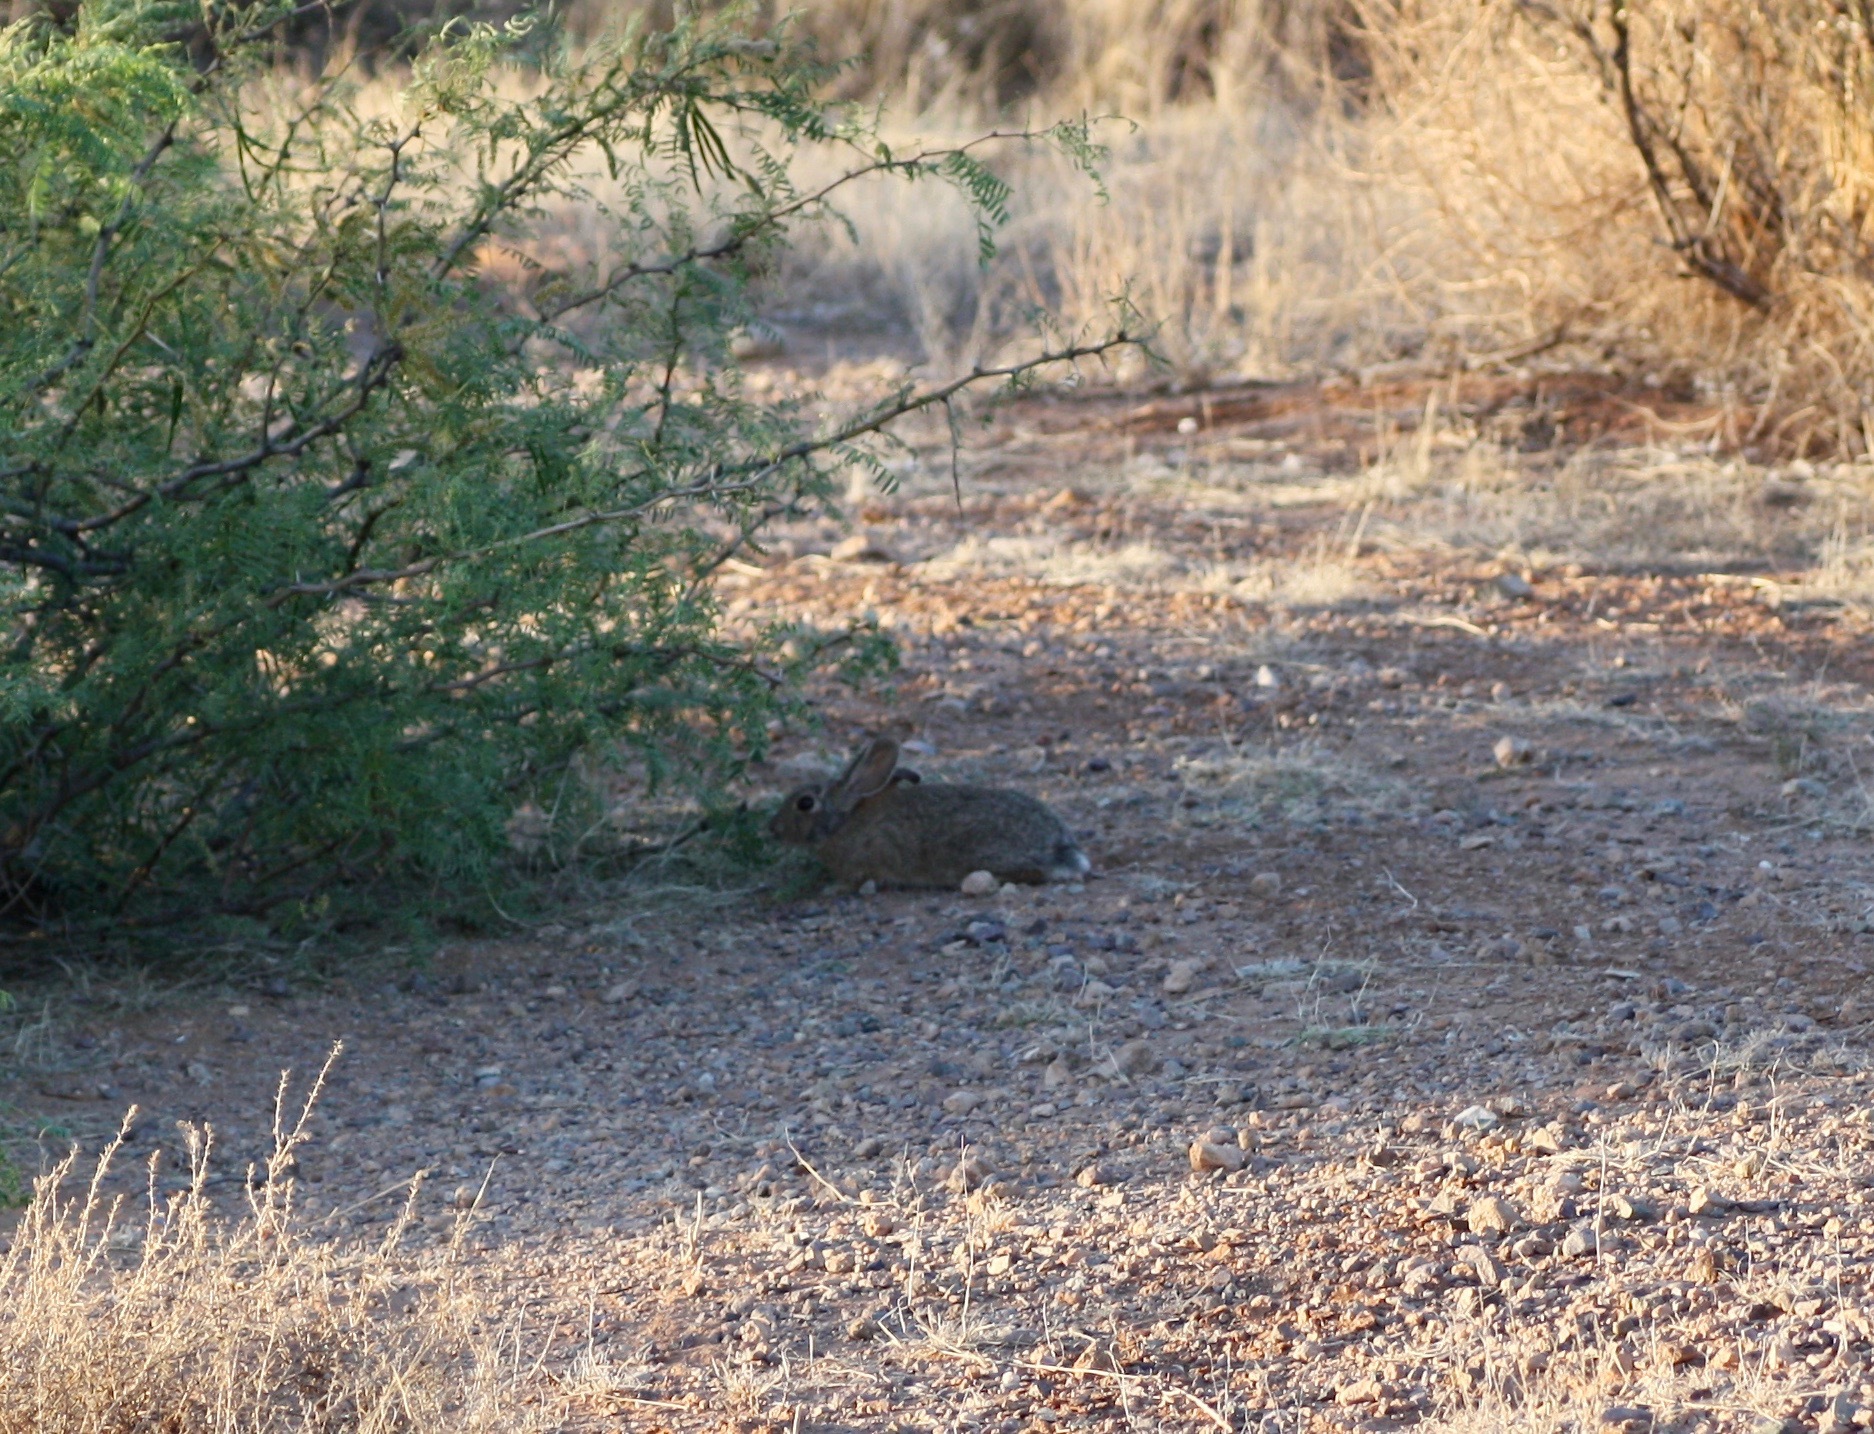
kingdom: Animalia
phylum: Chordata
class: Mammalia
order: Lagomorpha
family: Leporidae
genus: Sylvilagus
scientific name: Sylvilagus audubonii
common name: Desert cottontail
